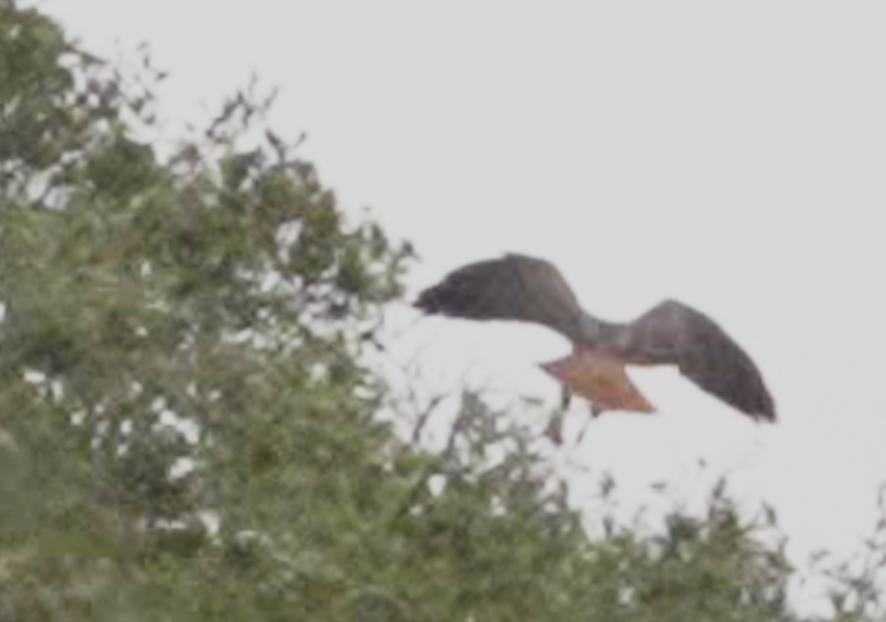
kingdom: Animalia
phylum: Chordata
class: Aves
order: Accipitriformes
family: Accipitridae
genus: Buteo
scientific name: Buteo jamaicensis
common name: Red-tailed hawk
